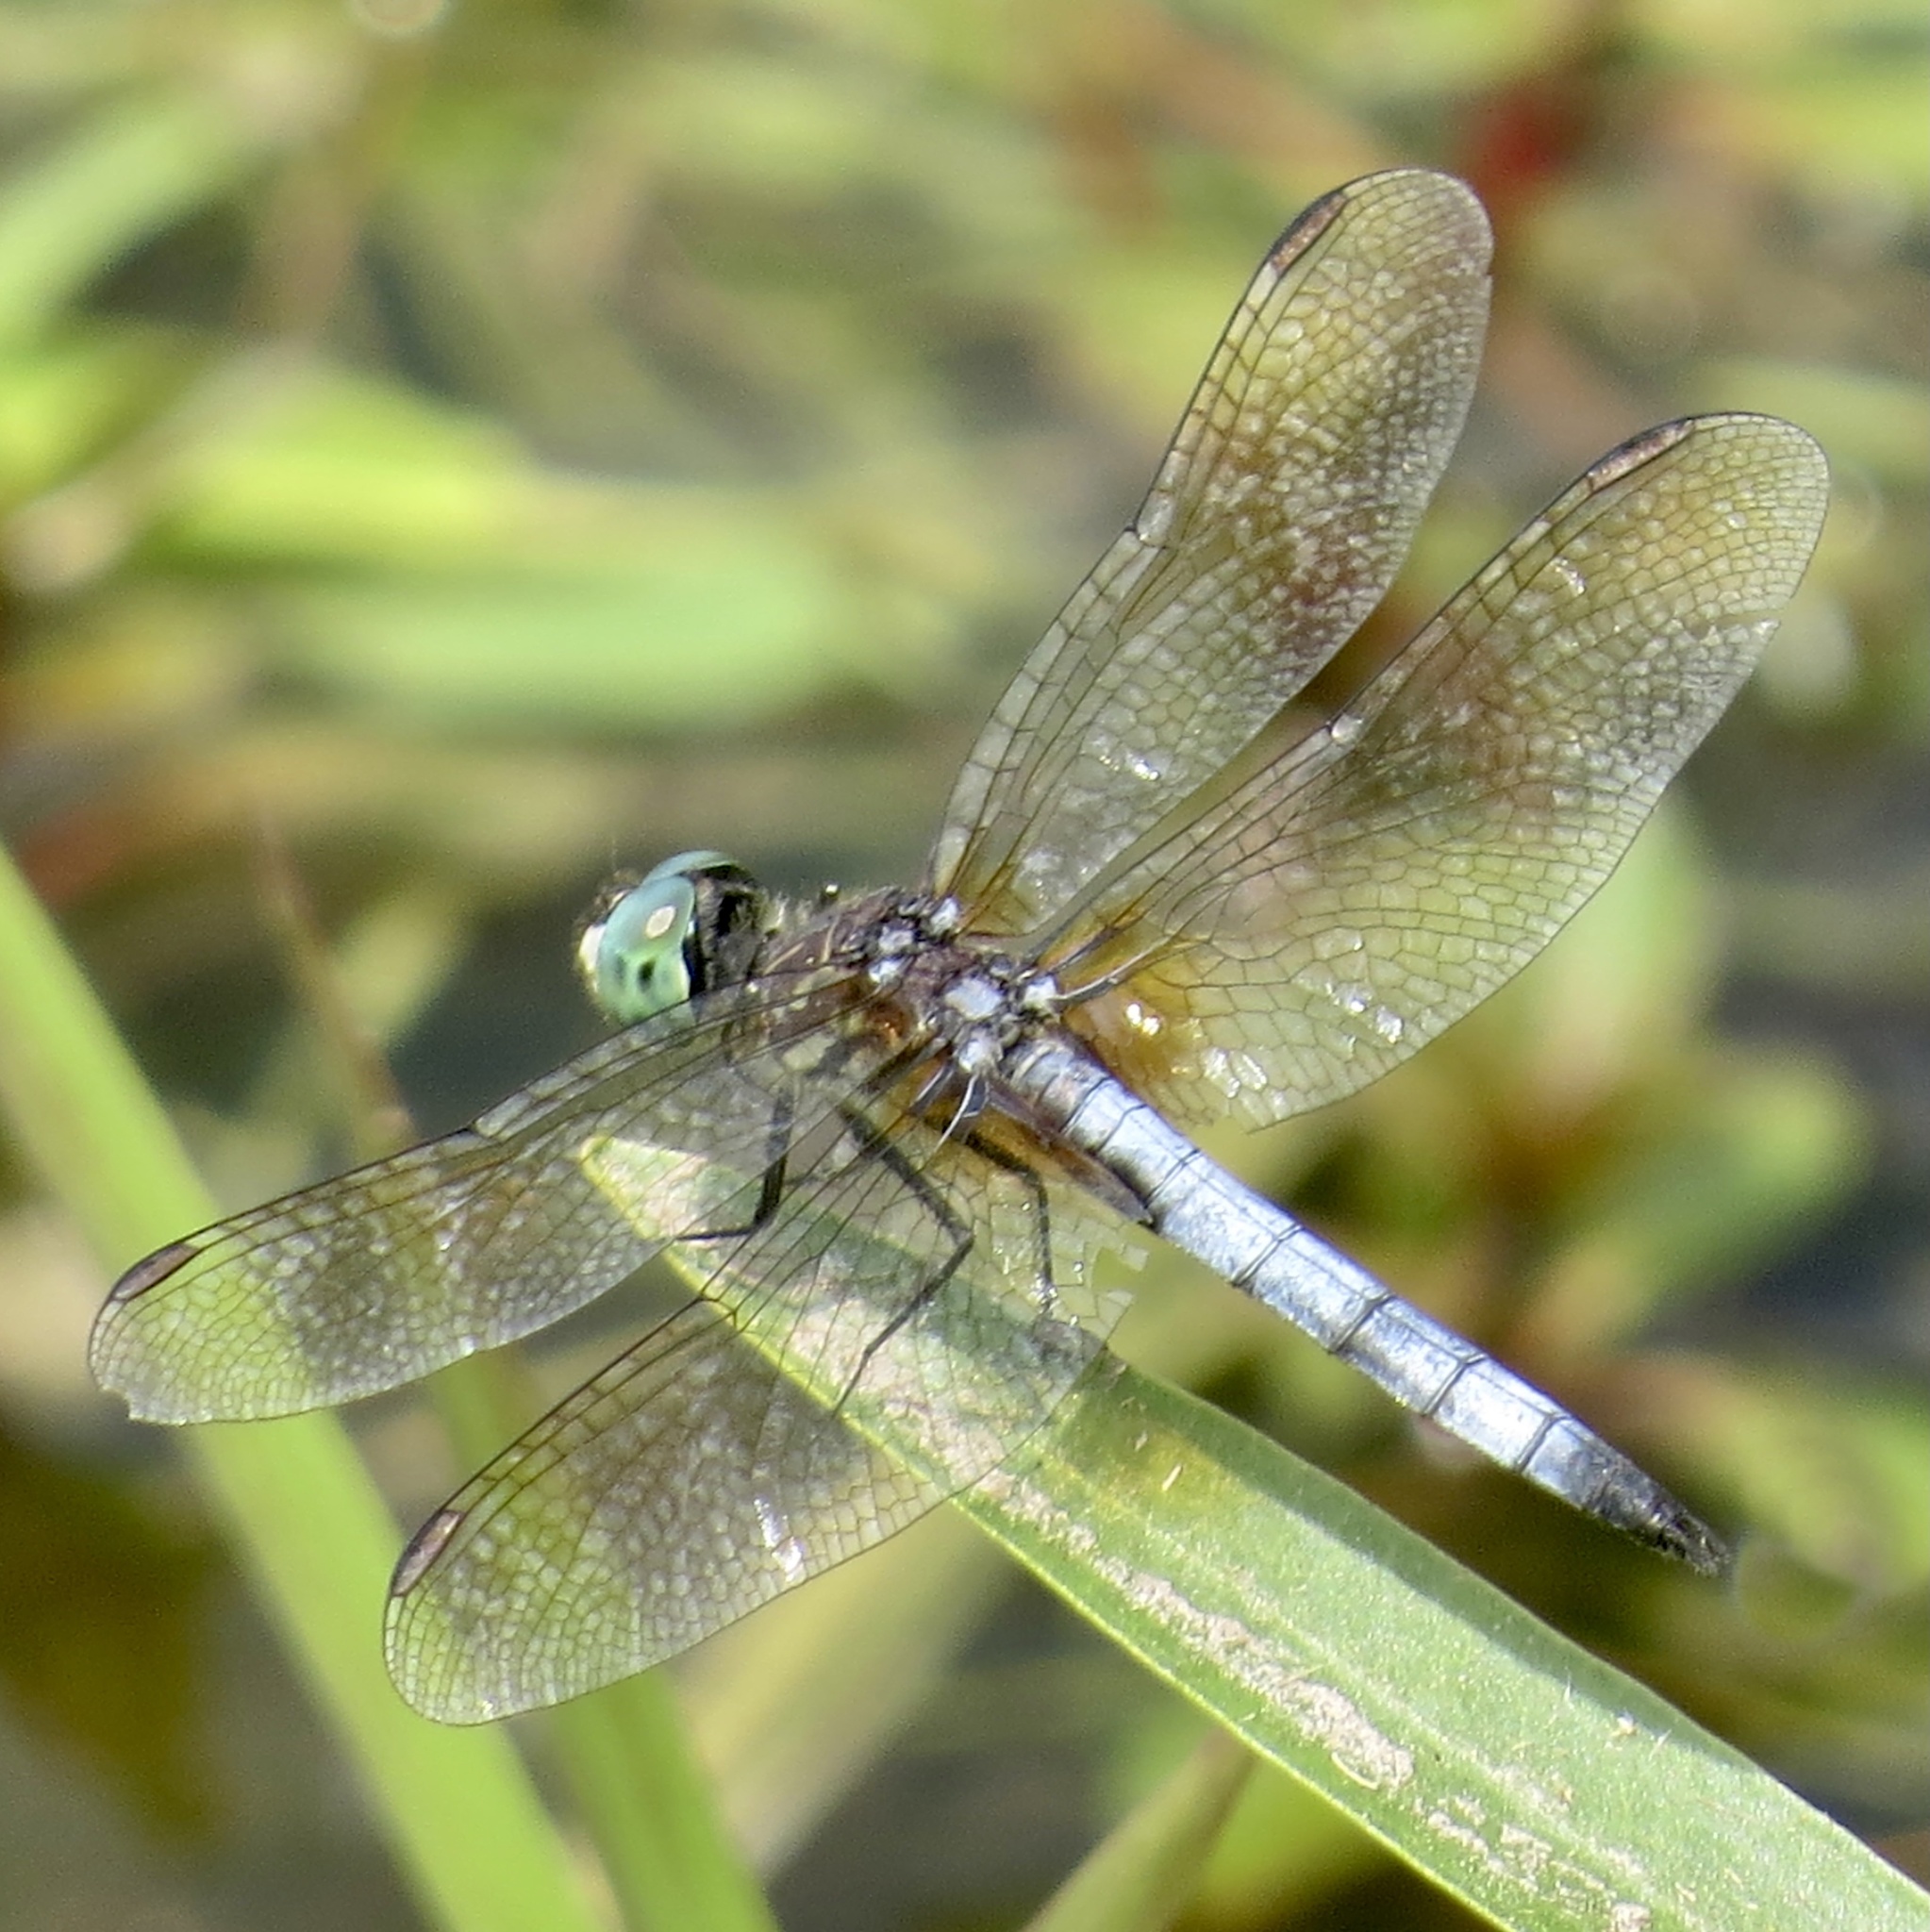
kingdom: Animalia
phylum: Arthropoda
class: Insecta
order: Odonata
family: Libellulidae
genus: Pachydiplax
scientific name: Pachydiplax longipennis
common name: Blue dasher
